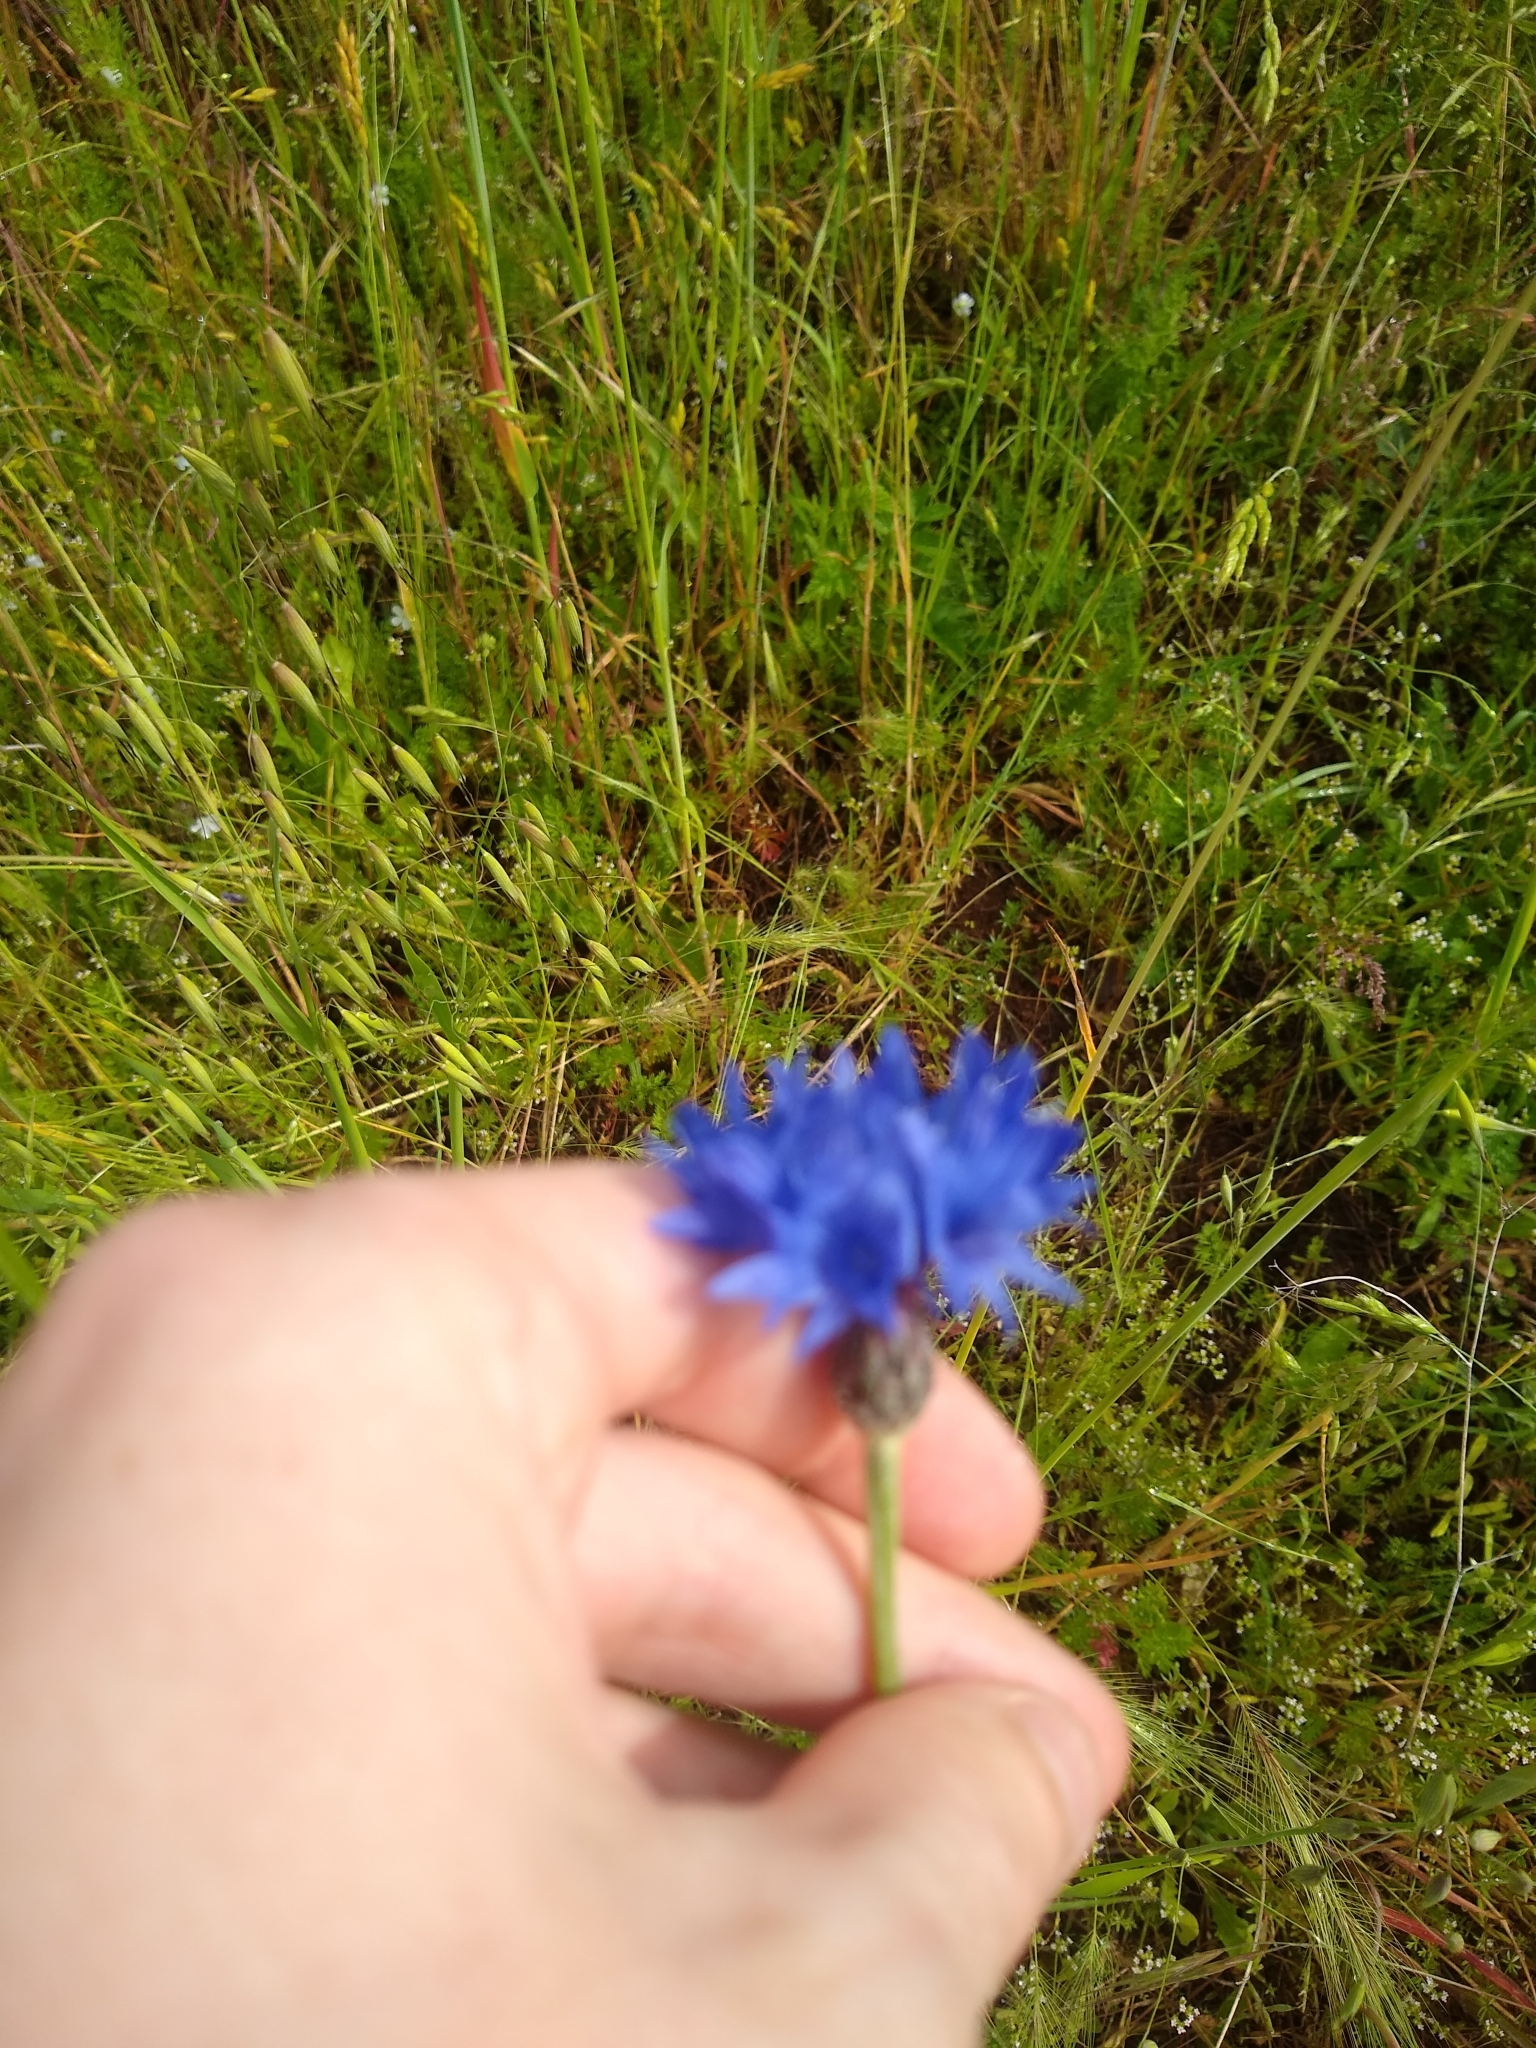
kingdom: Plantae
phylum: Tracheophyta
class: Magnoliopsida
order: Asterales
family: Asteraceae
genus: Centaurea
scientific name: Centaurea cyanus
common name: Cornflower
